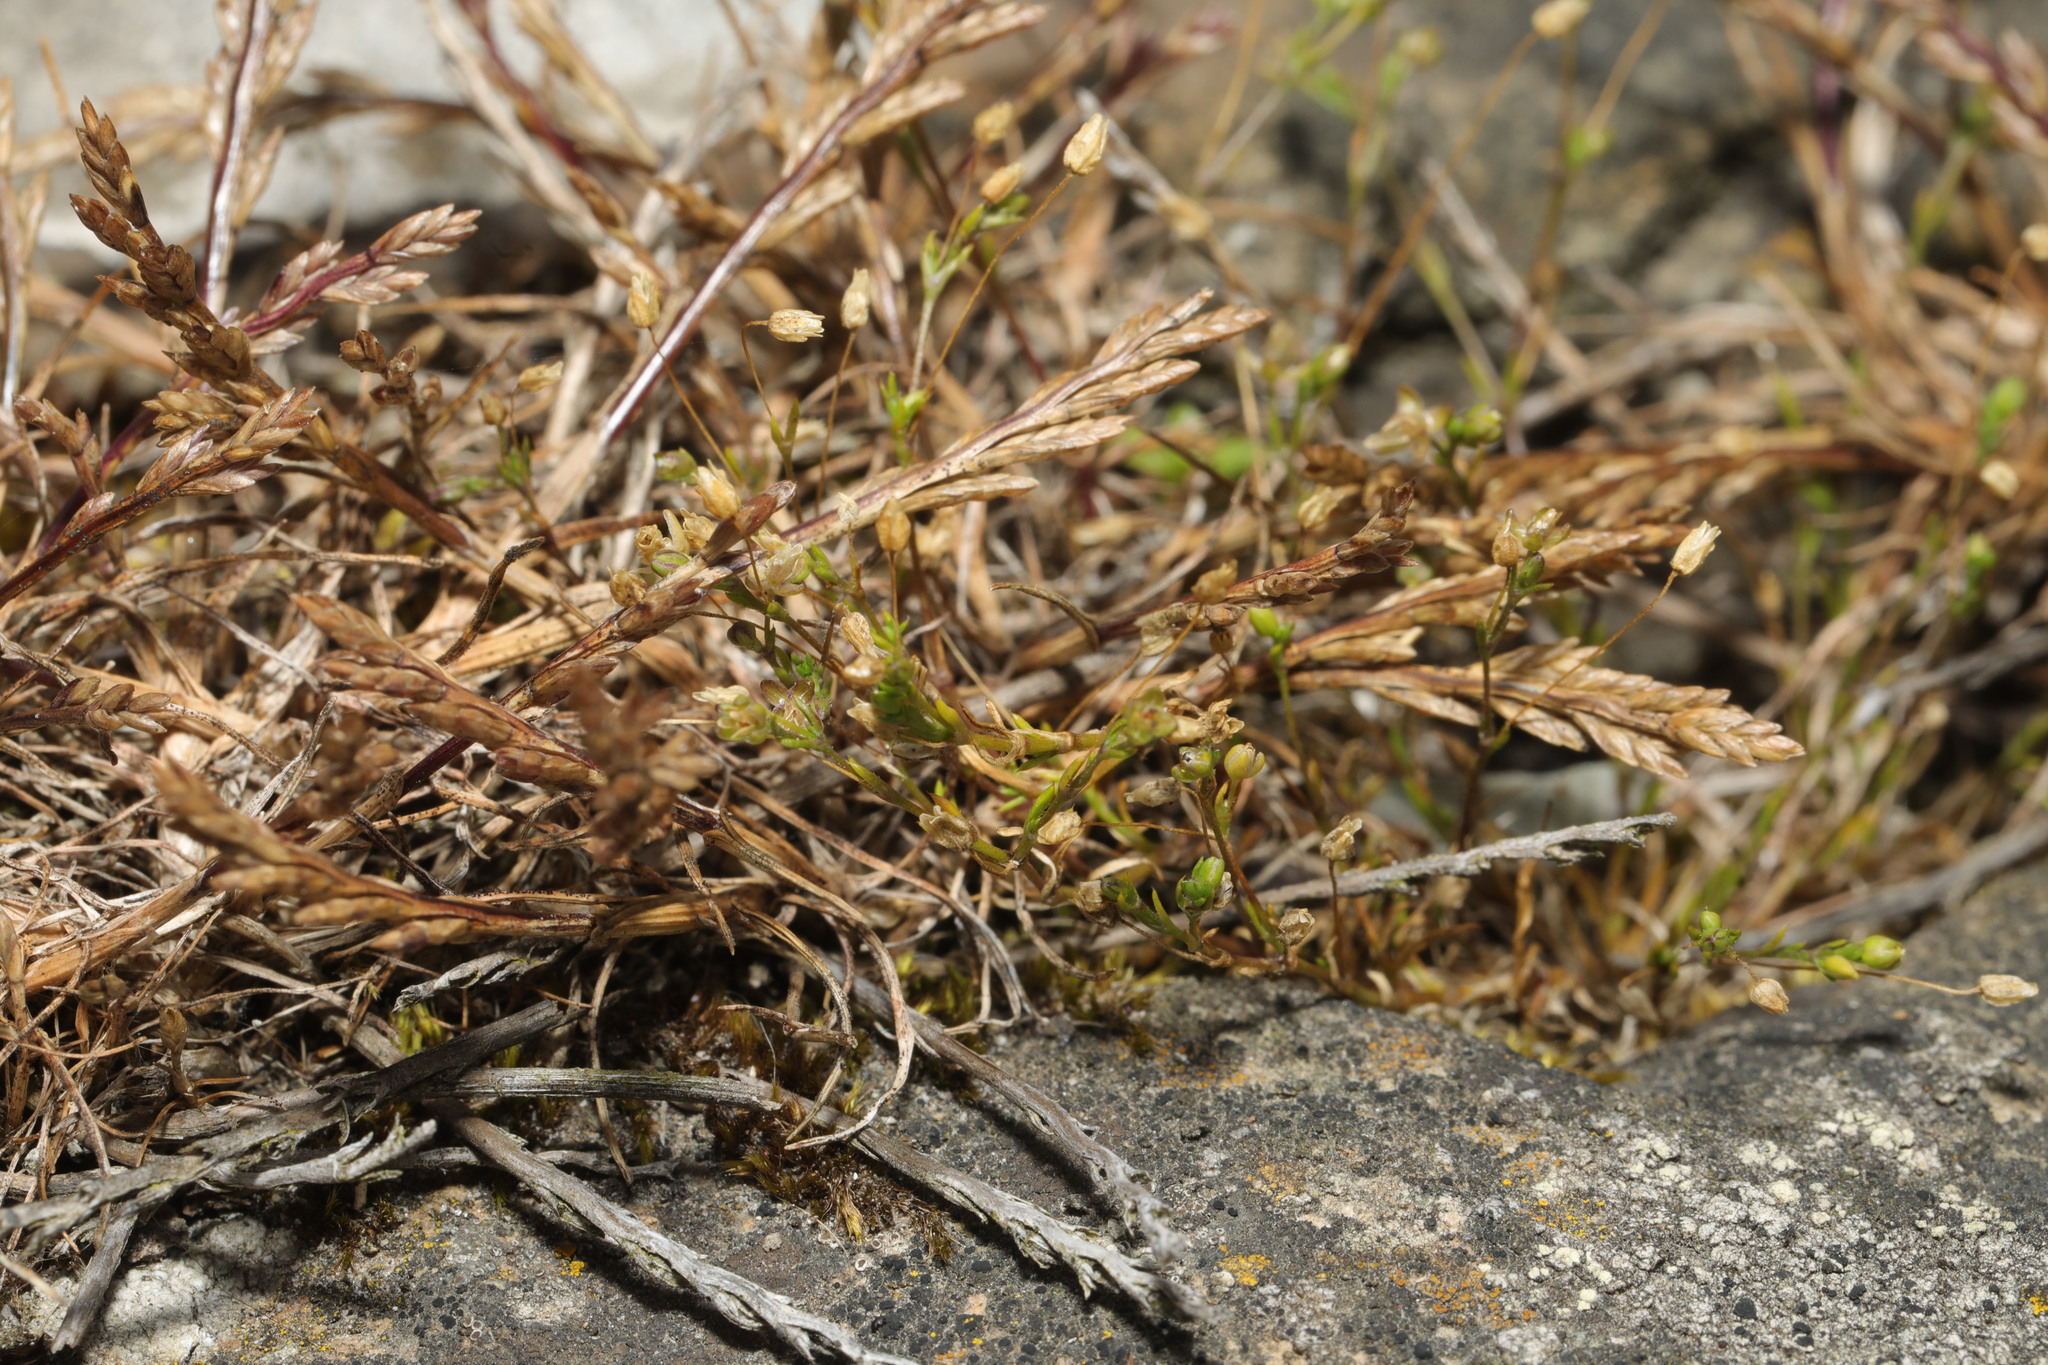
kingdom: Plantae
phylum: Tracheophyta
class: Liliopsida
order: Poales
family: Poaceae
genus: Catapodium
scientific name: Catapodium marinum
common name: Sea fern-grass
